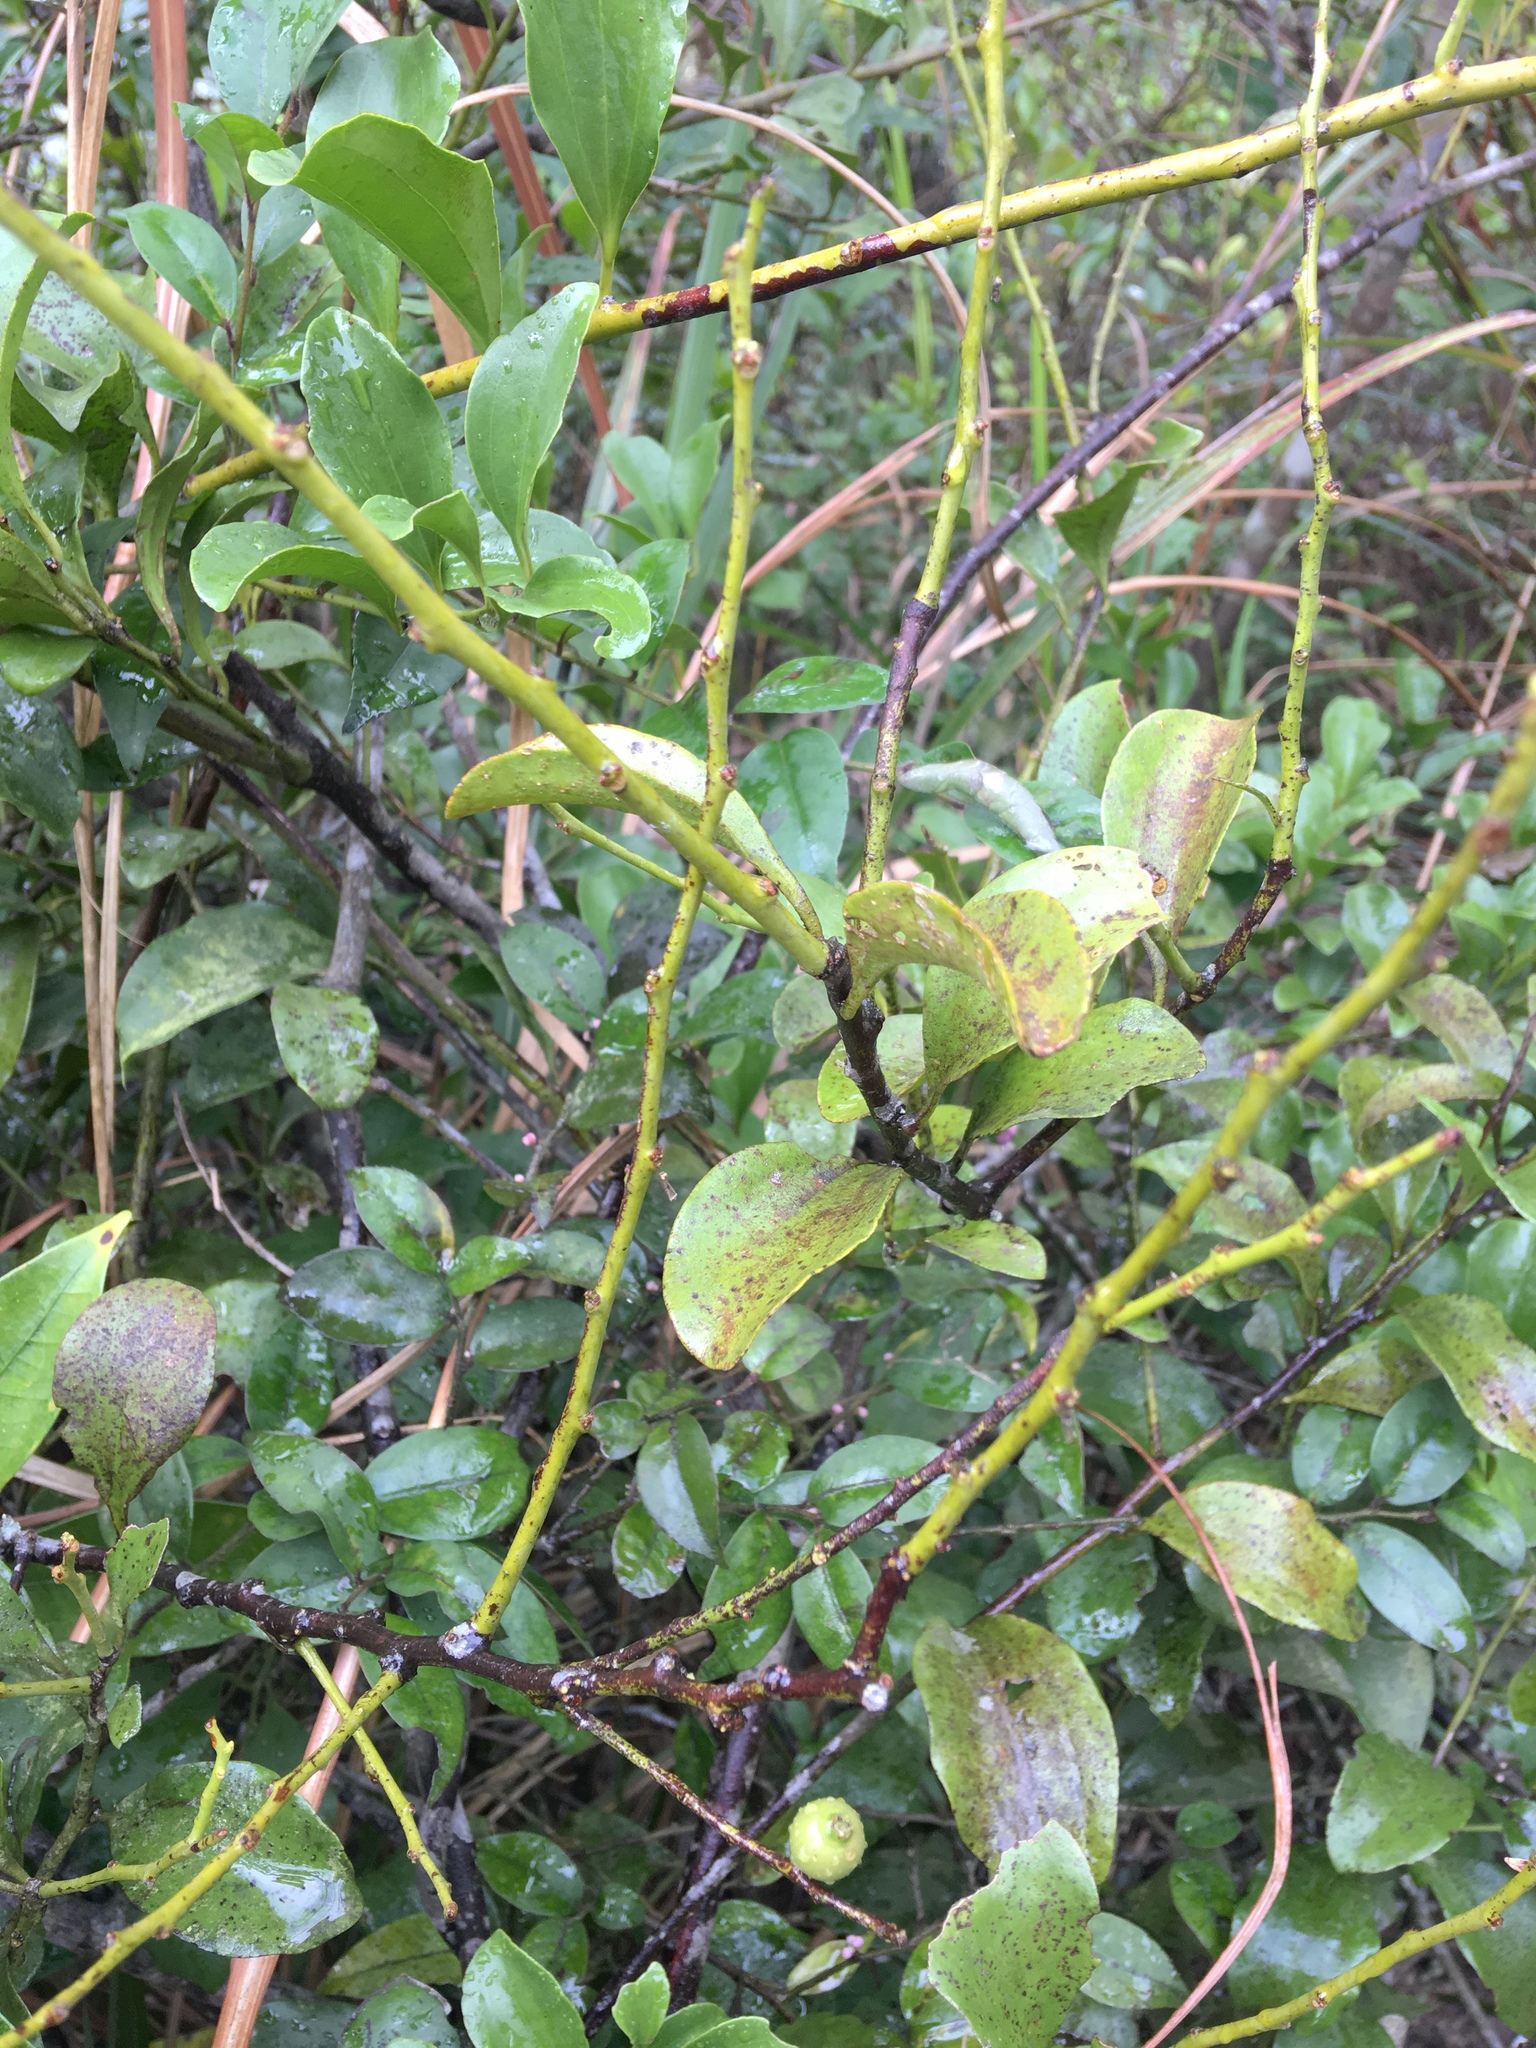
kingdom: Plantae
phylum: Tracheophyta
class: Magnoliopsida
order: Santalales
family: Amphorogynaceae
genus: Dendrotrophe
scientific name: Dendrotrophe varians
